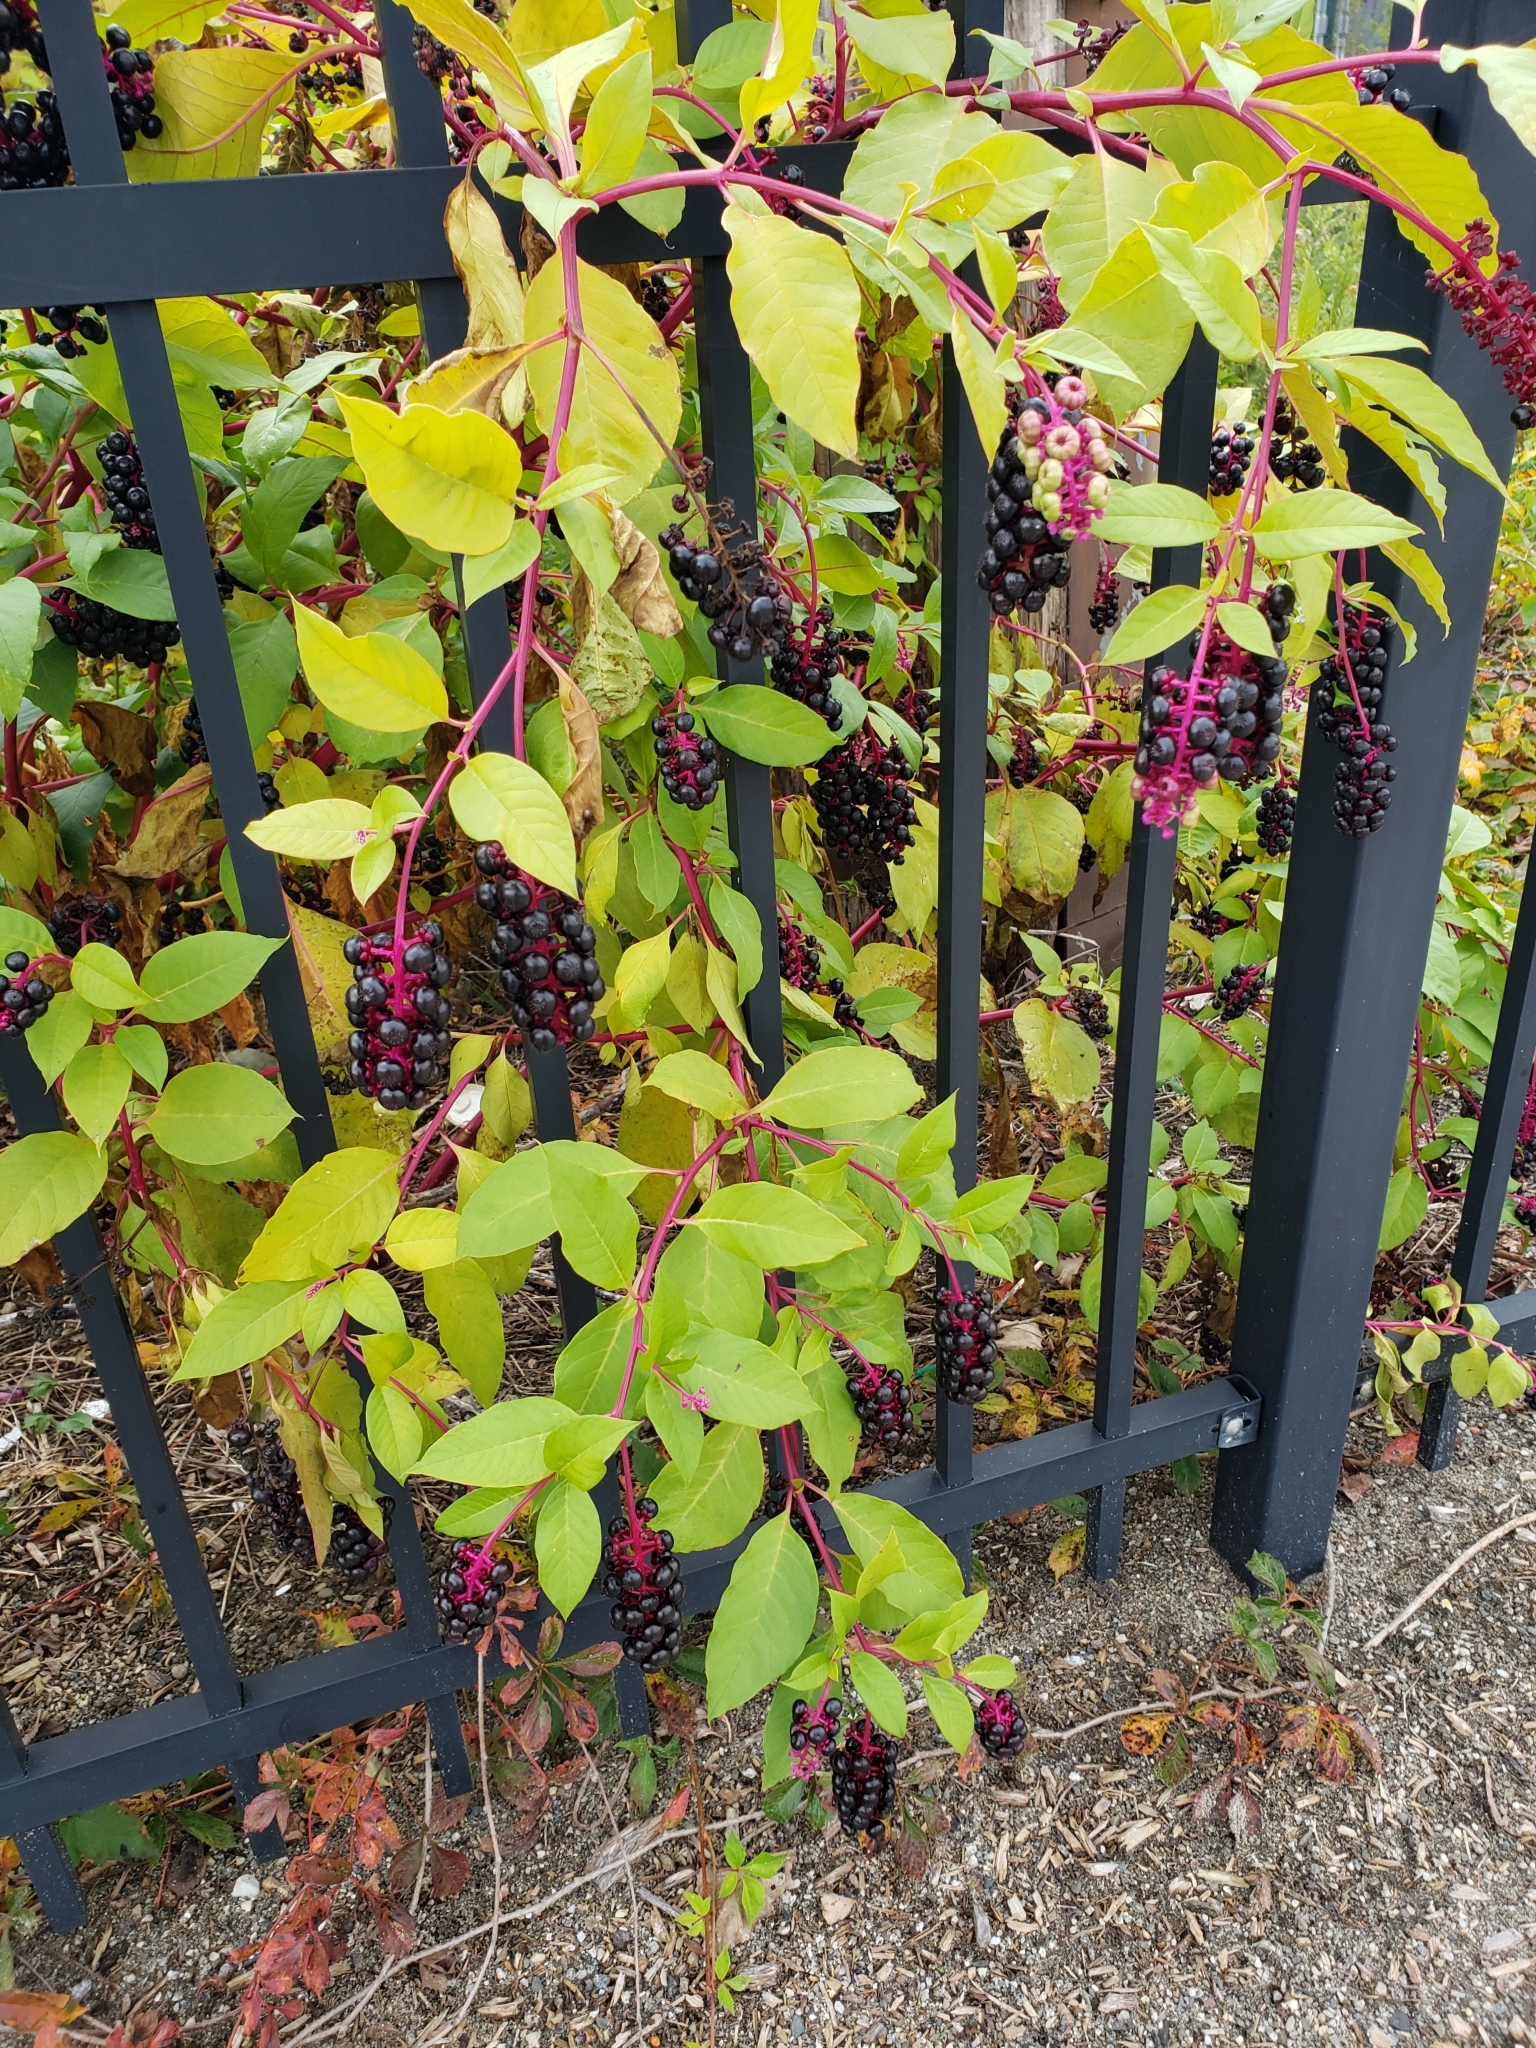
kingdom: Plantae
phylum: Tracheophyta
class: Magnoliopsida
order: Caryophyllales
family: Phytolaccaceae
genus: Phytolacca
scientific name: Phytolacca americana
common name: American pokeweed
